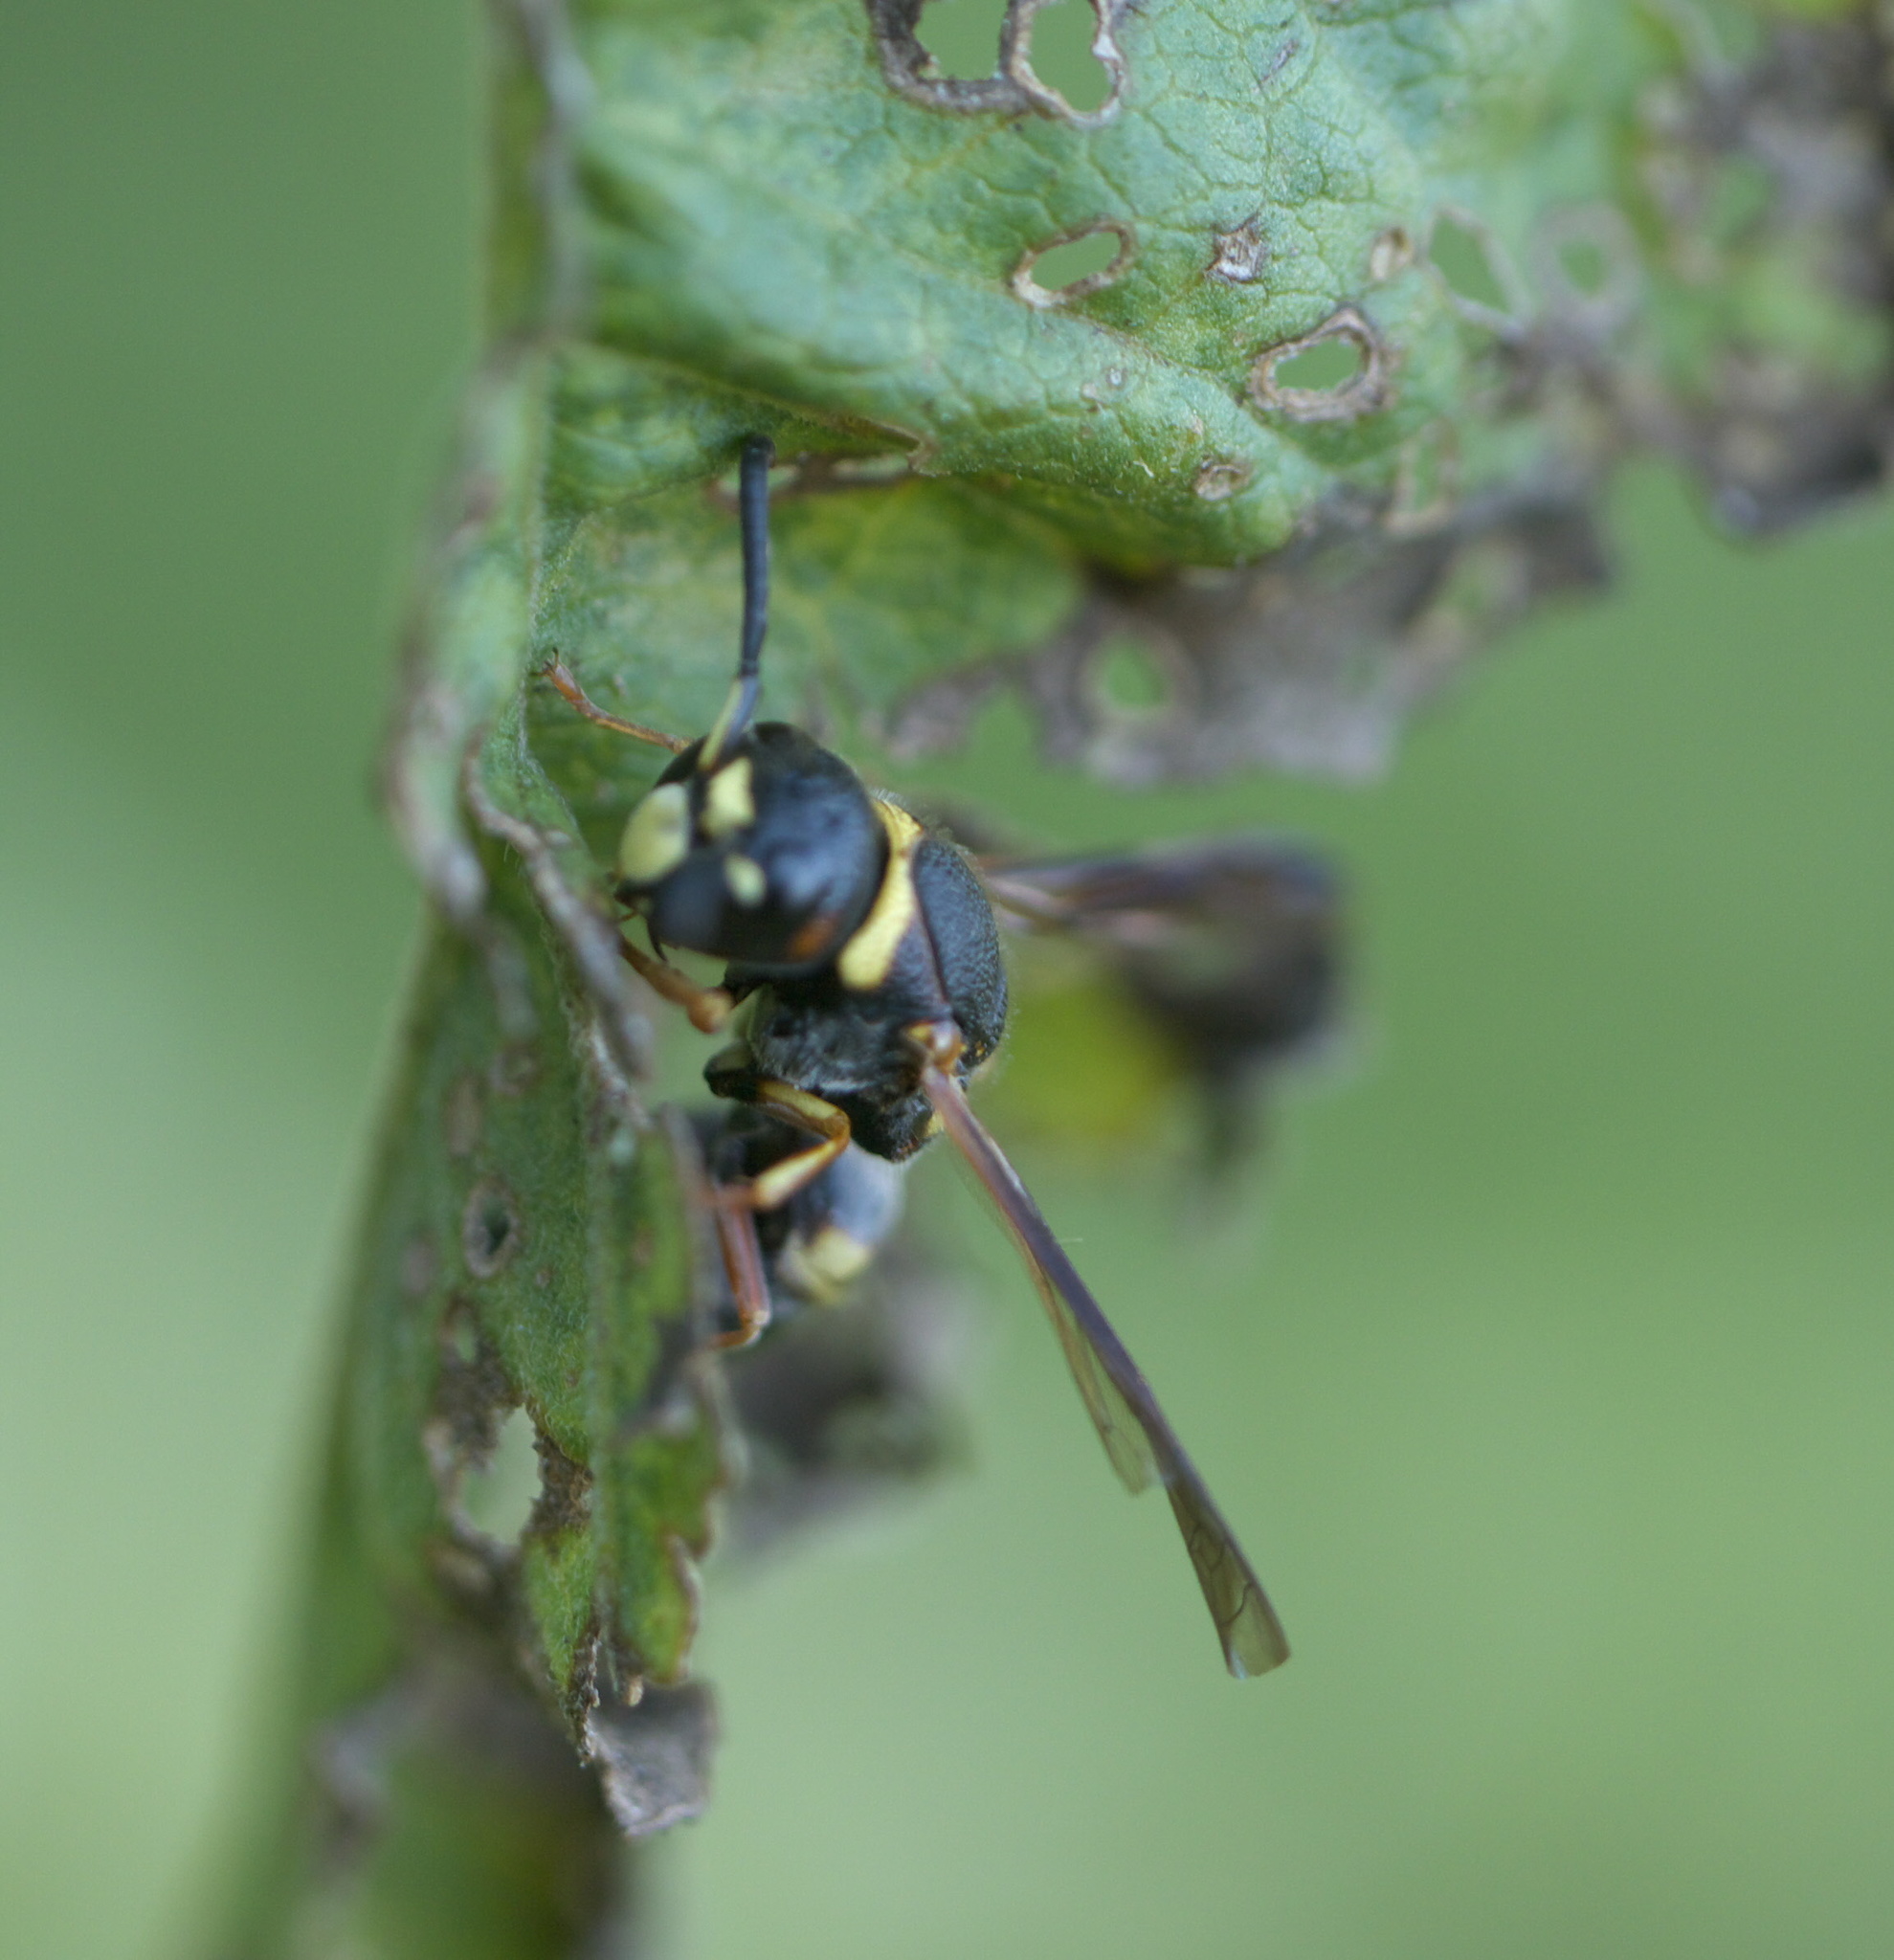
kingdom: Animalia
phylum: Arthropoda
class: Insecta
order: Hymenoptera
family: Eumenidae
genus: Euodynerus
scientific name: Euodynerus annulatus
